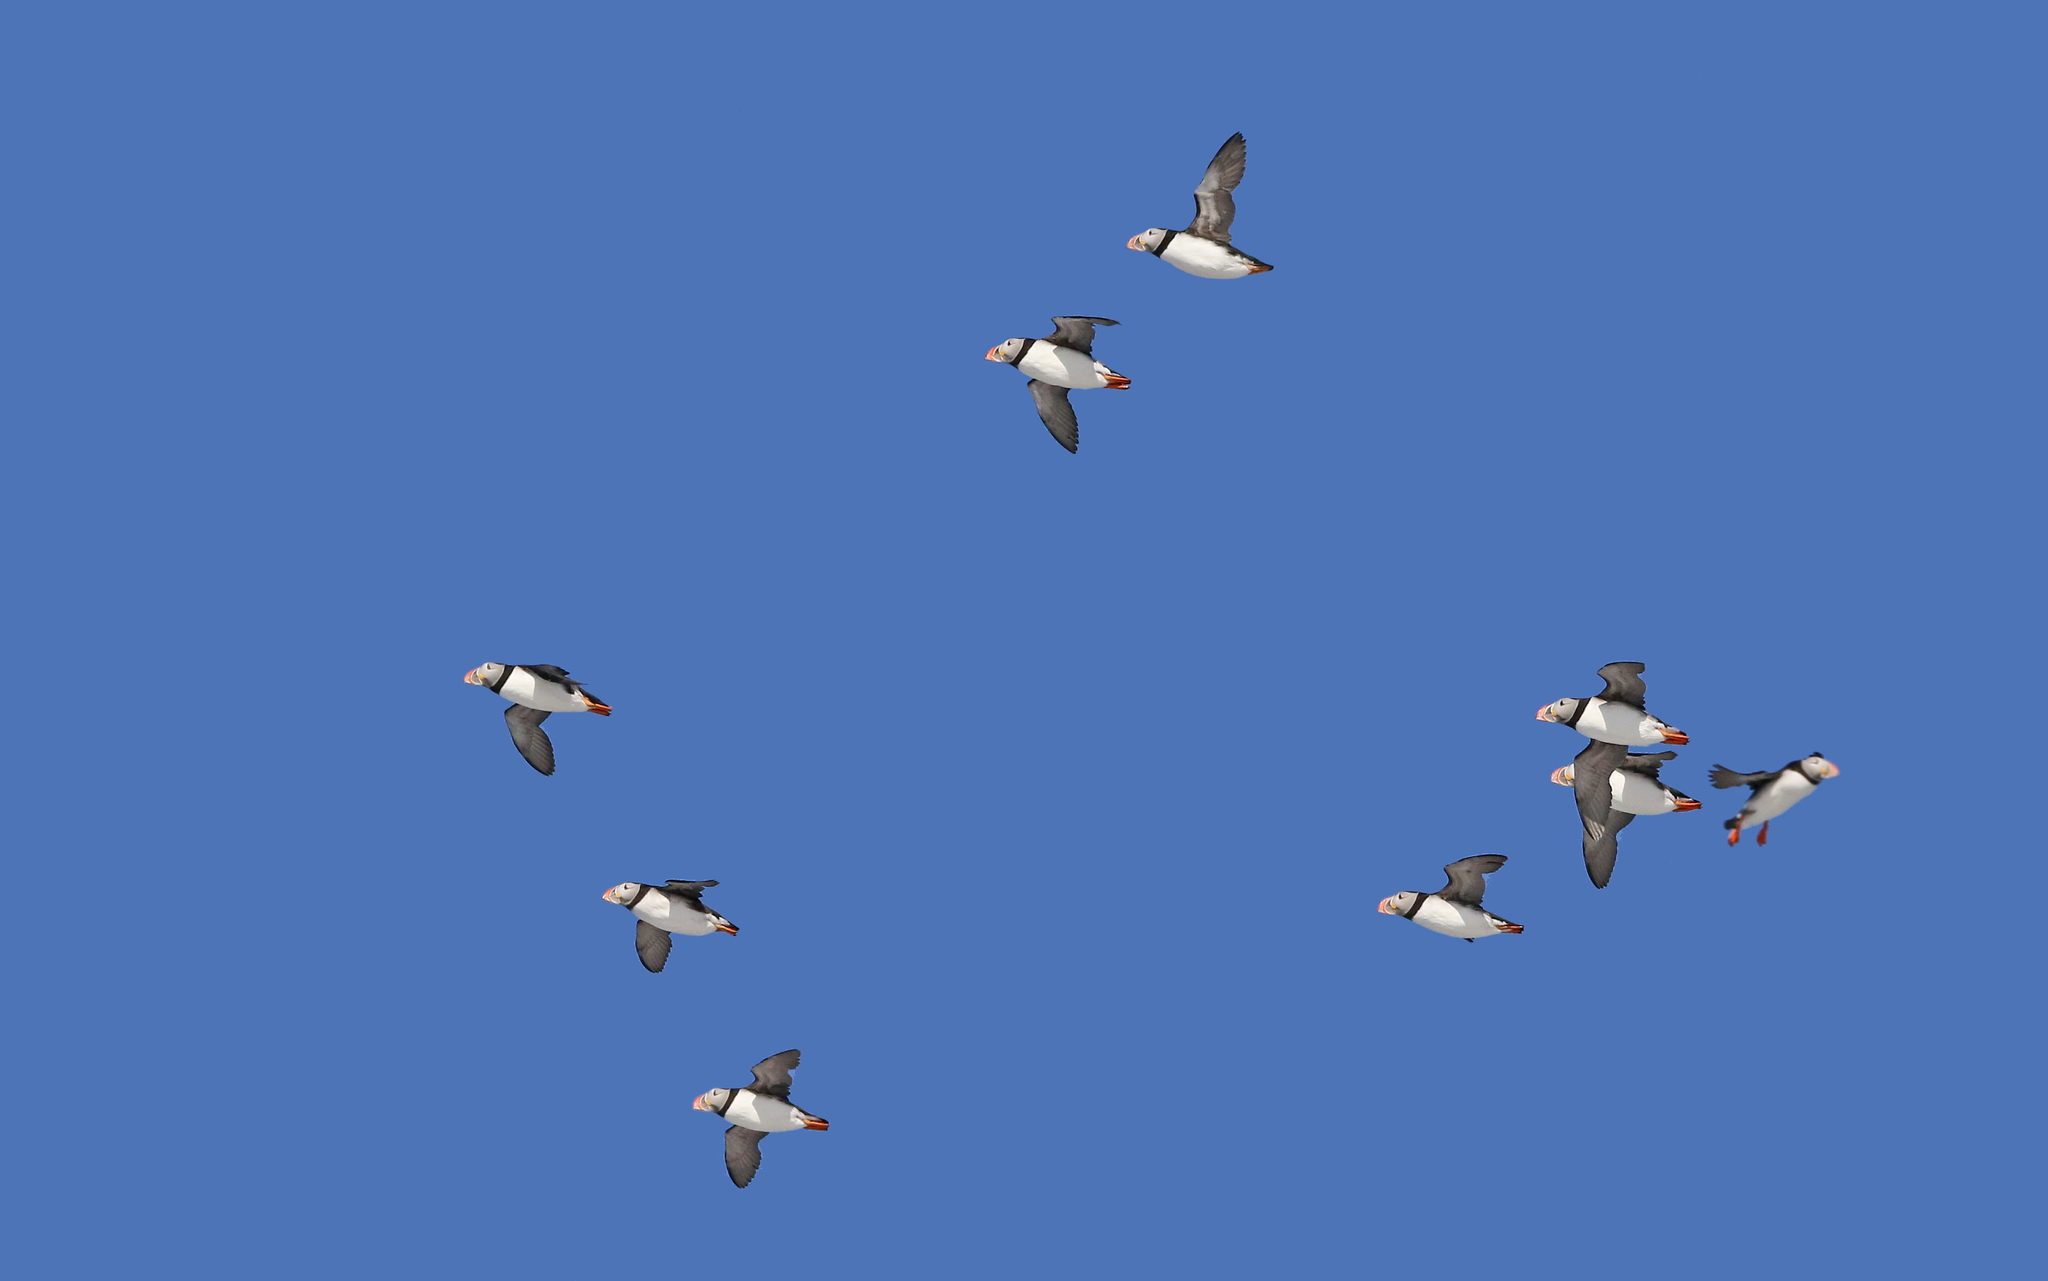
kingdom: Animalia
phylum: Chordata
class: Aves
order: Charadriiformes
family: Alcidae
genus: Fratercula
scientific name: Fratercula arctica
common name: Atlantic puffin
